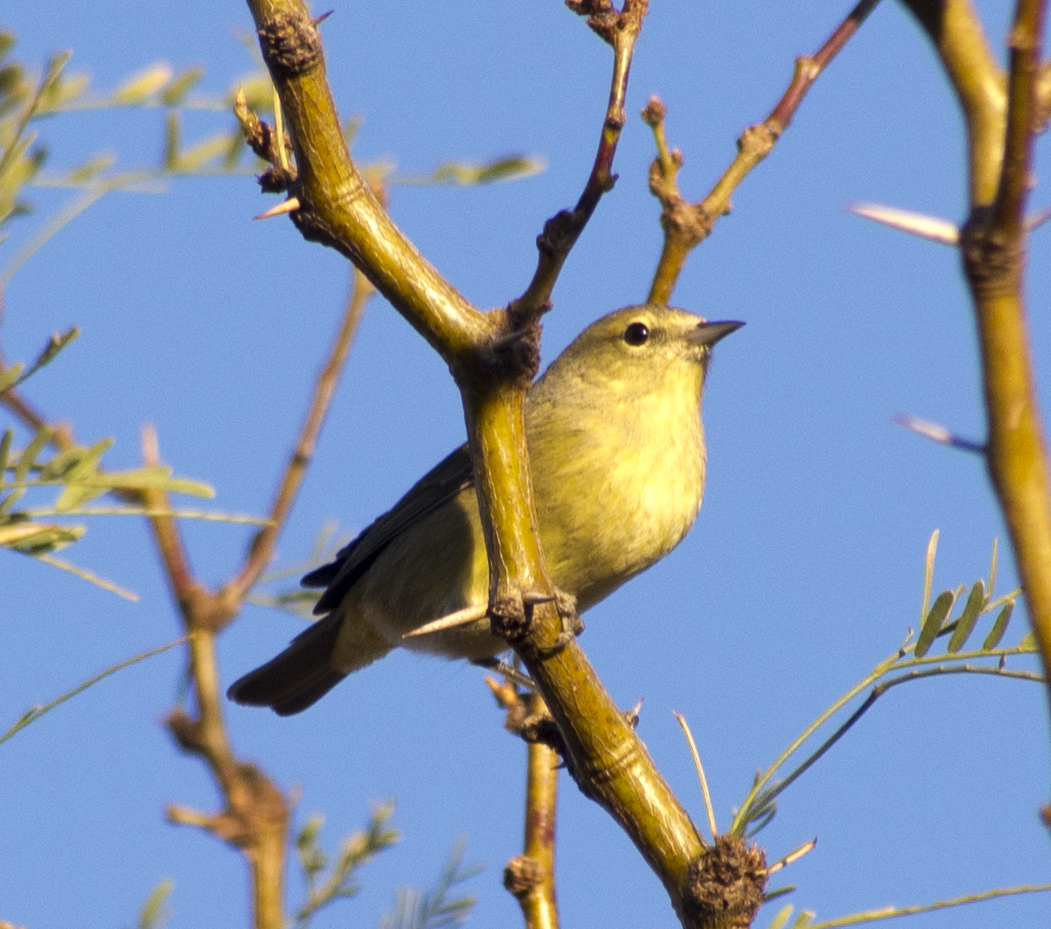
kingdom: Animalia
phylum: Chordata
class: Aves
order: Passeriformes
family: Parulidae
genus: Leiothlypis
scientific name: Leiothlypis celata
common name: Orange-crowned warbler
